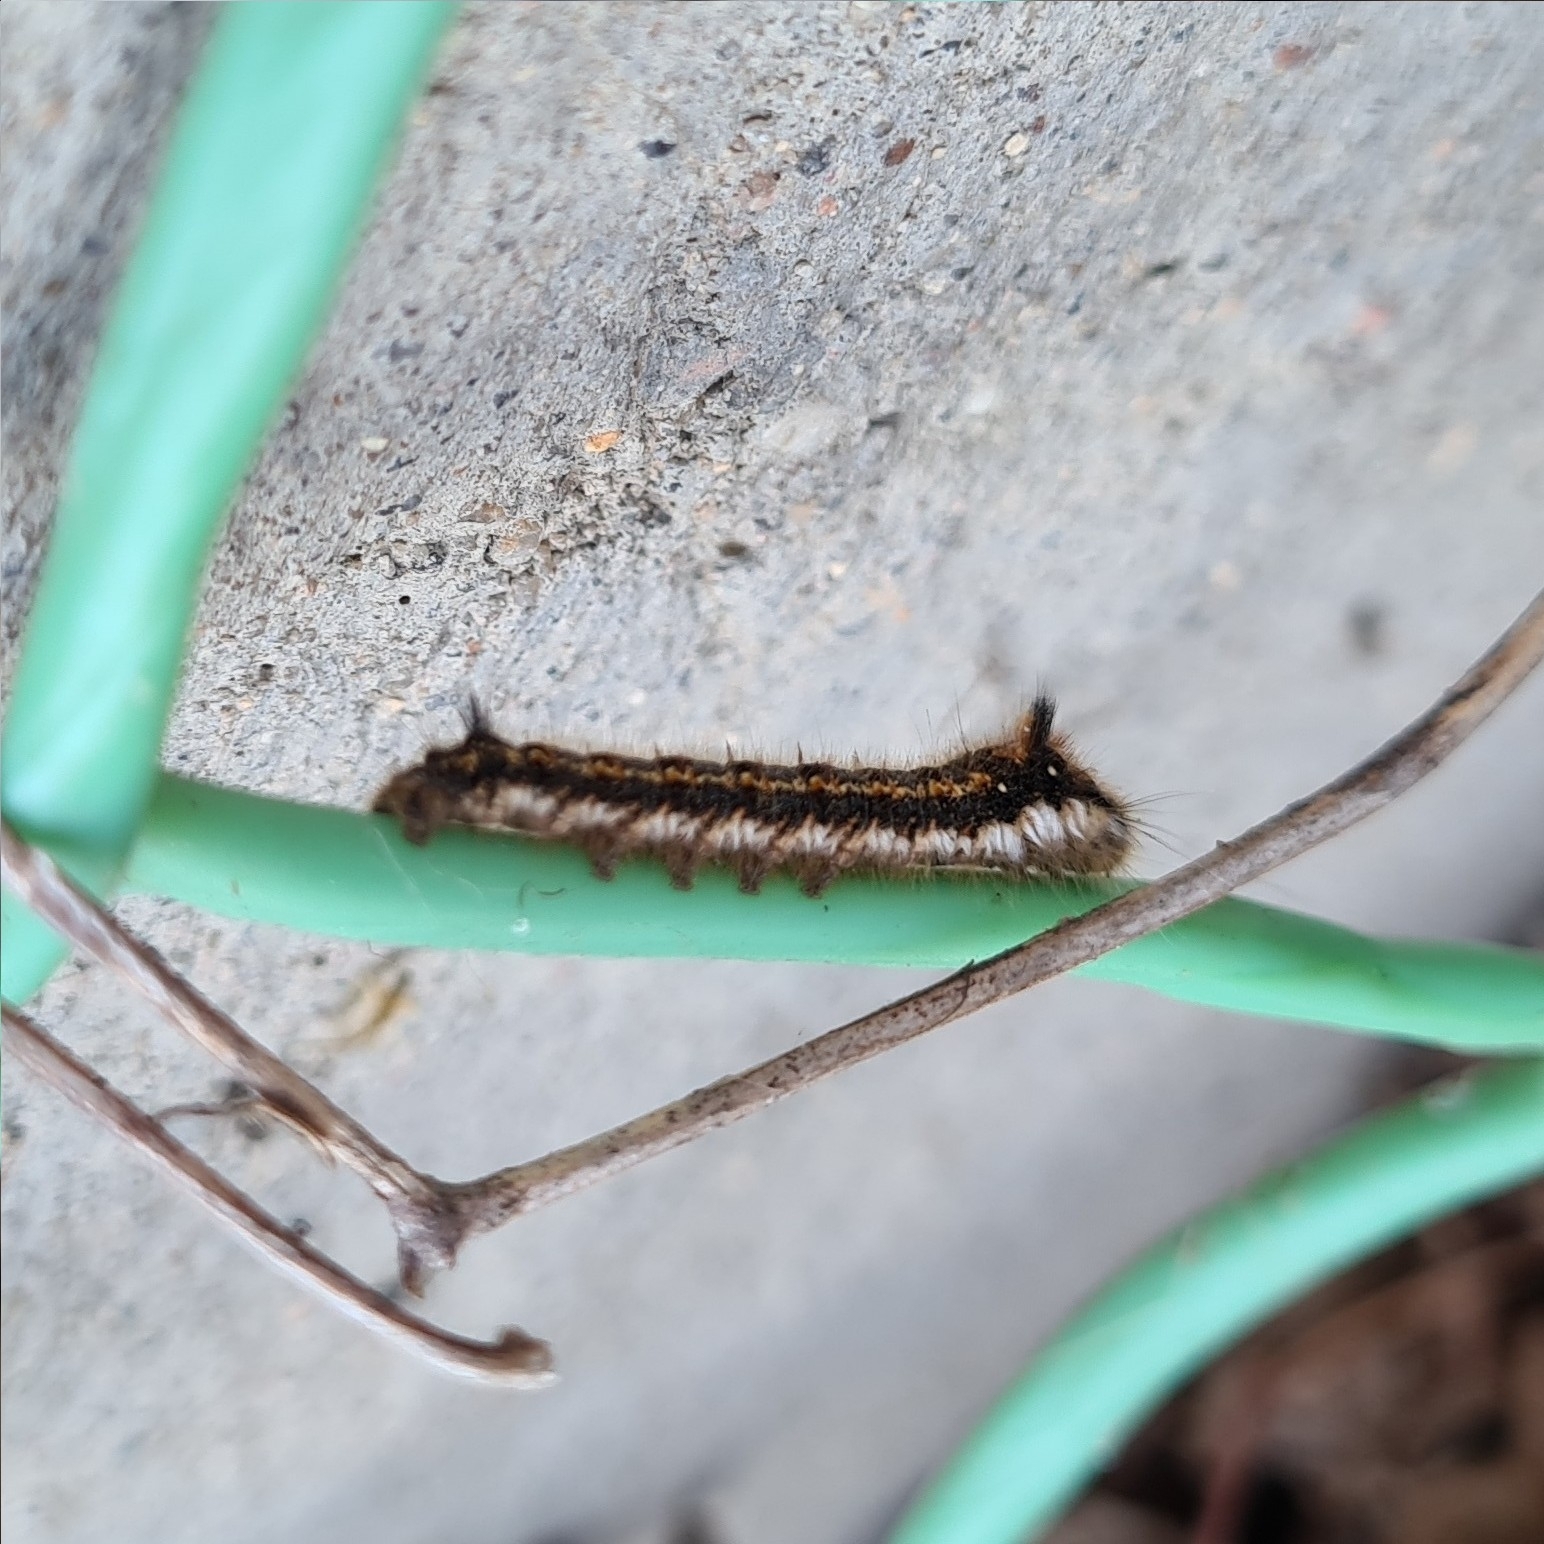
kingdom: Animalia
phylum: Arthropoda
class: Insecta
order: Lepidoptera
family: Lasiocampidae
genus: Euthrix
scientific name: Euthrix potatoria
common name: Drinker
